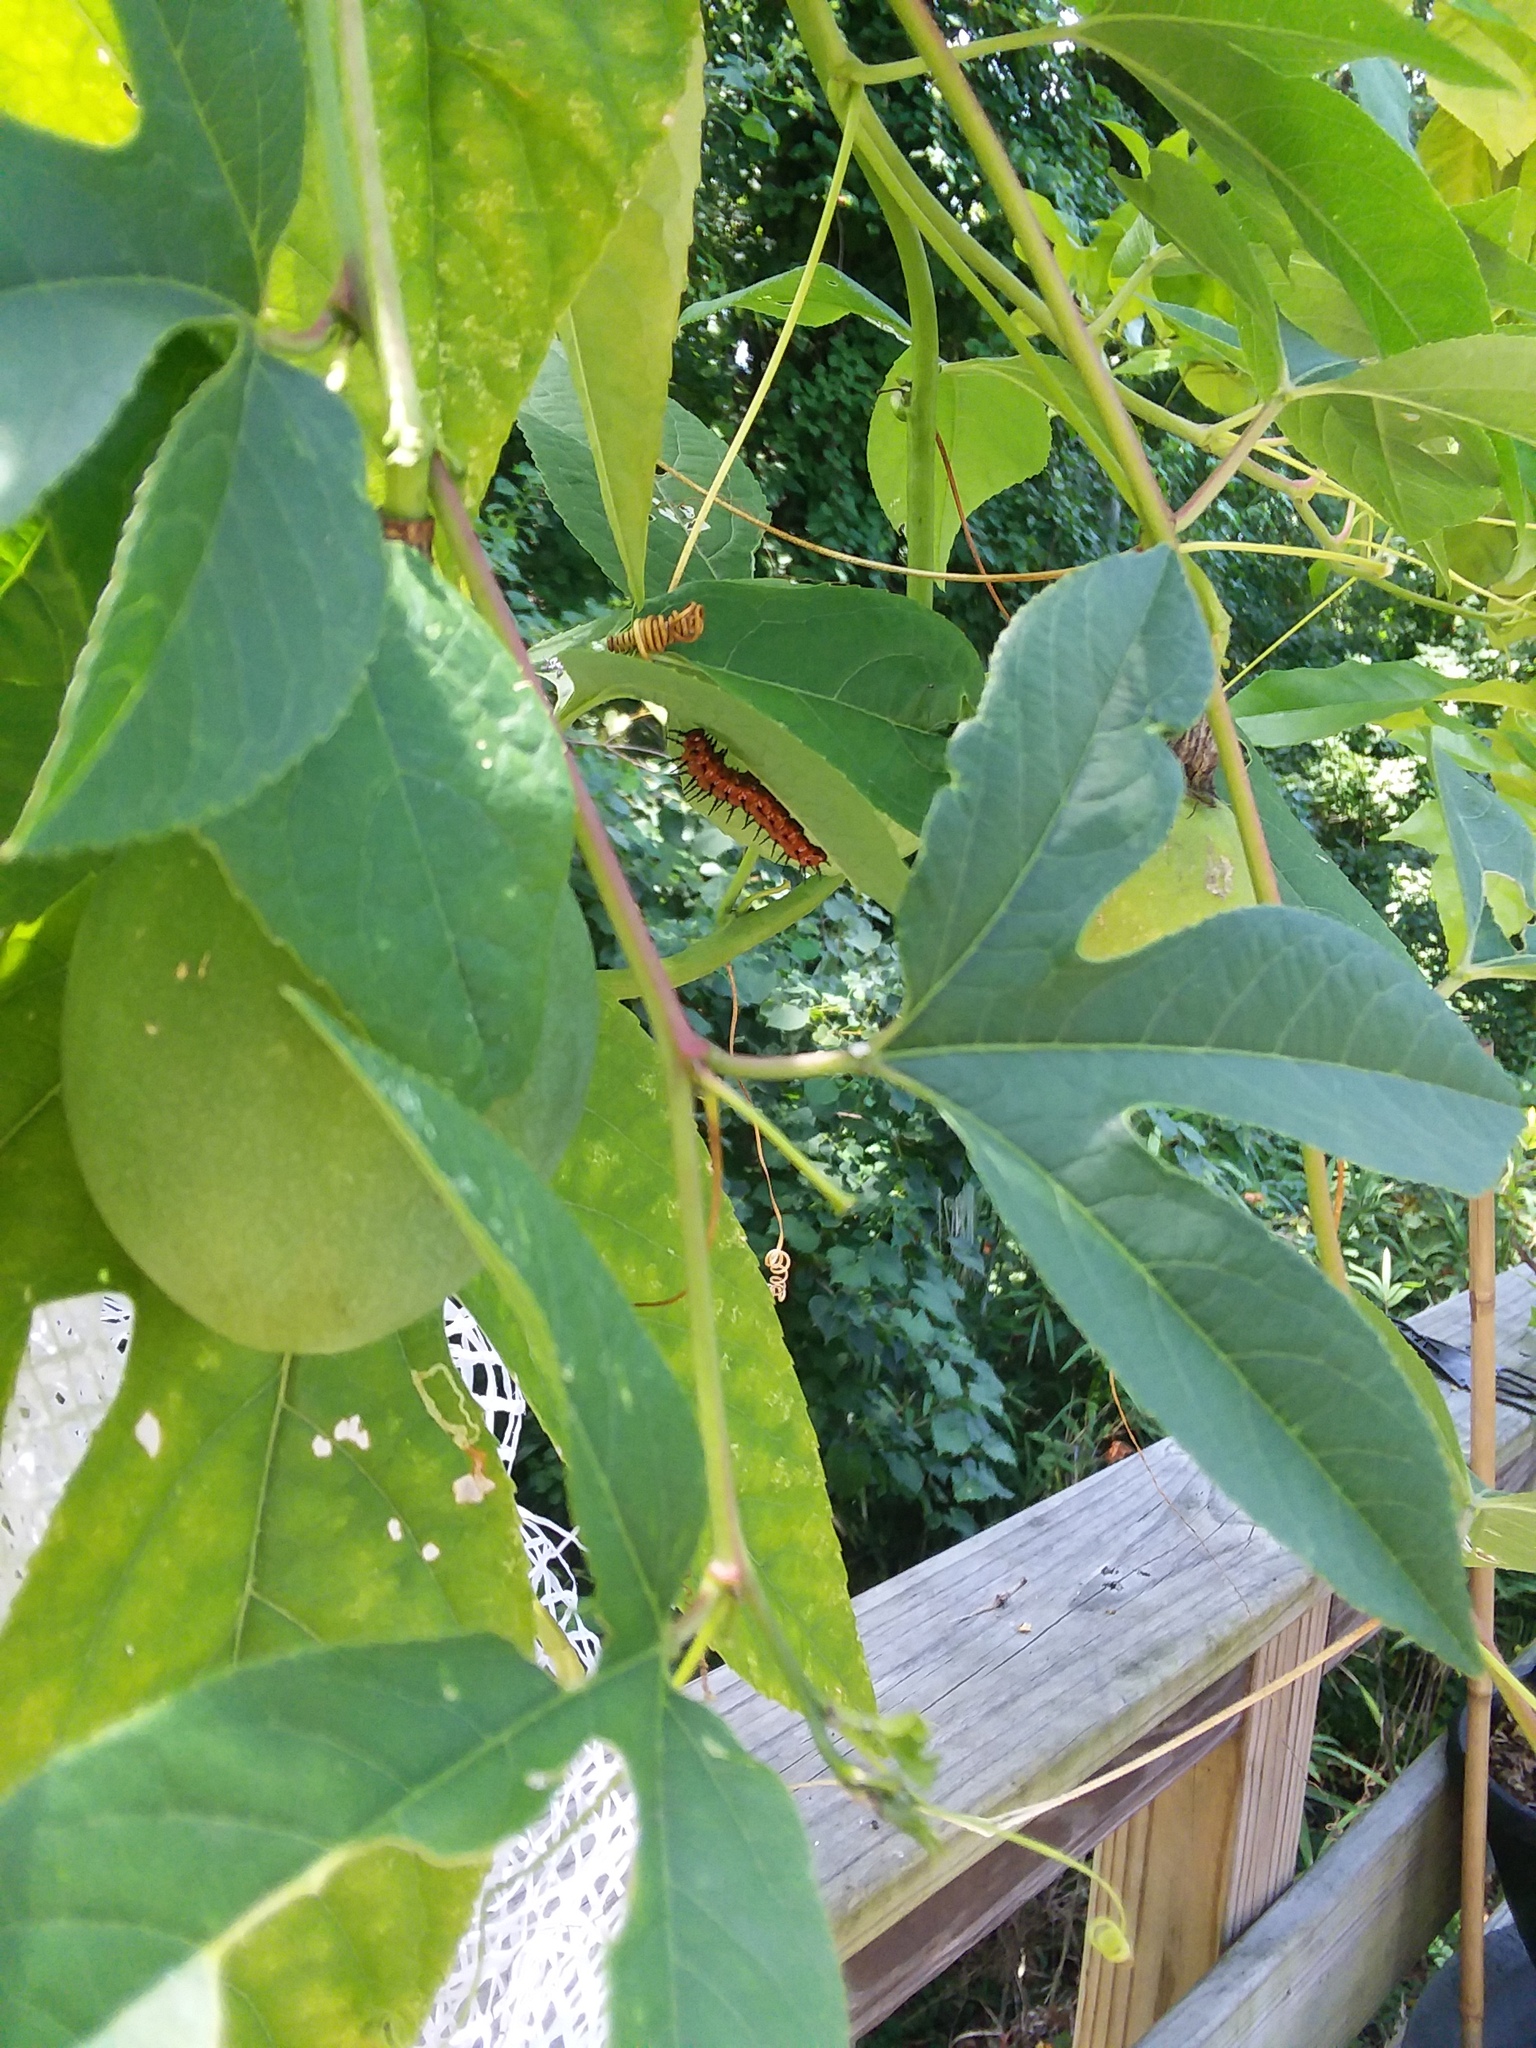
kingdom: Animalia
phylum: Arthropoda
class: Insecta
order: Lepidoptera
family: Nymphalidae
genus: Dione
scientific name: Dione vanillae
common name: Gulf fritillary
